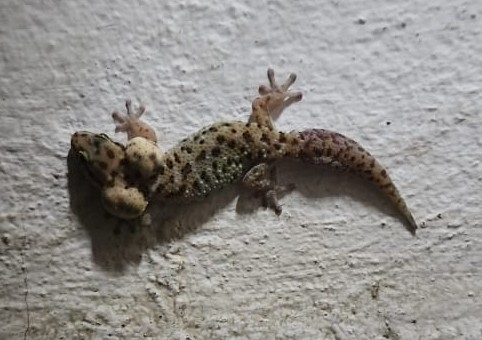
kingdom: Animalia
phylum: Chordata
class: Squamata
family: Gekkonidae
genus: Pachydactylus
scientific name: Pachydactylus affinis
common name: Transvaal gecko
